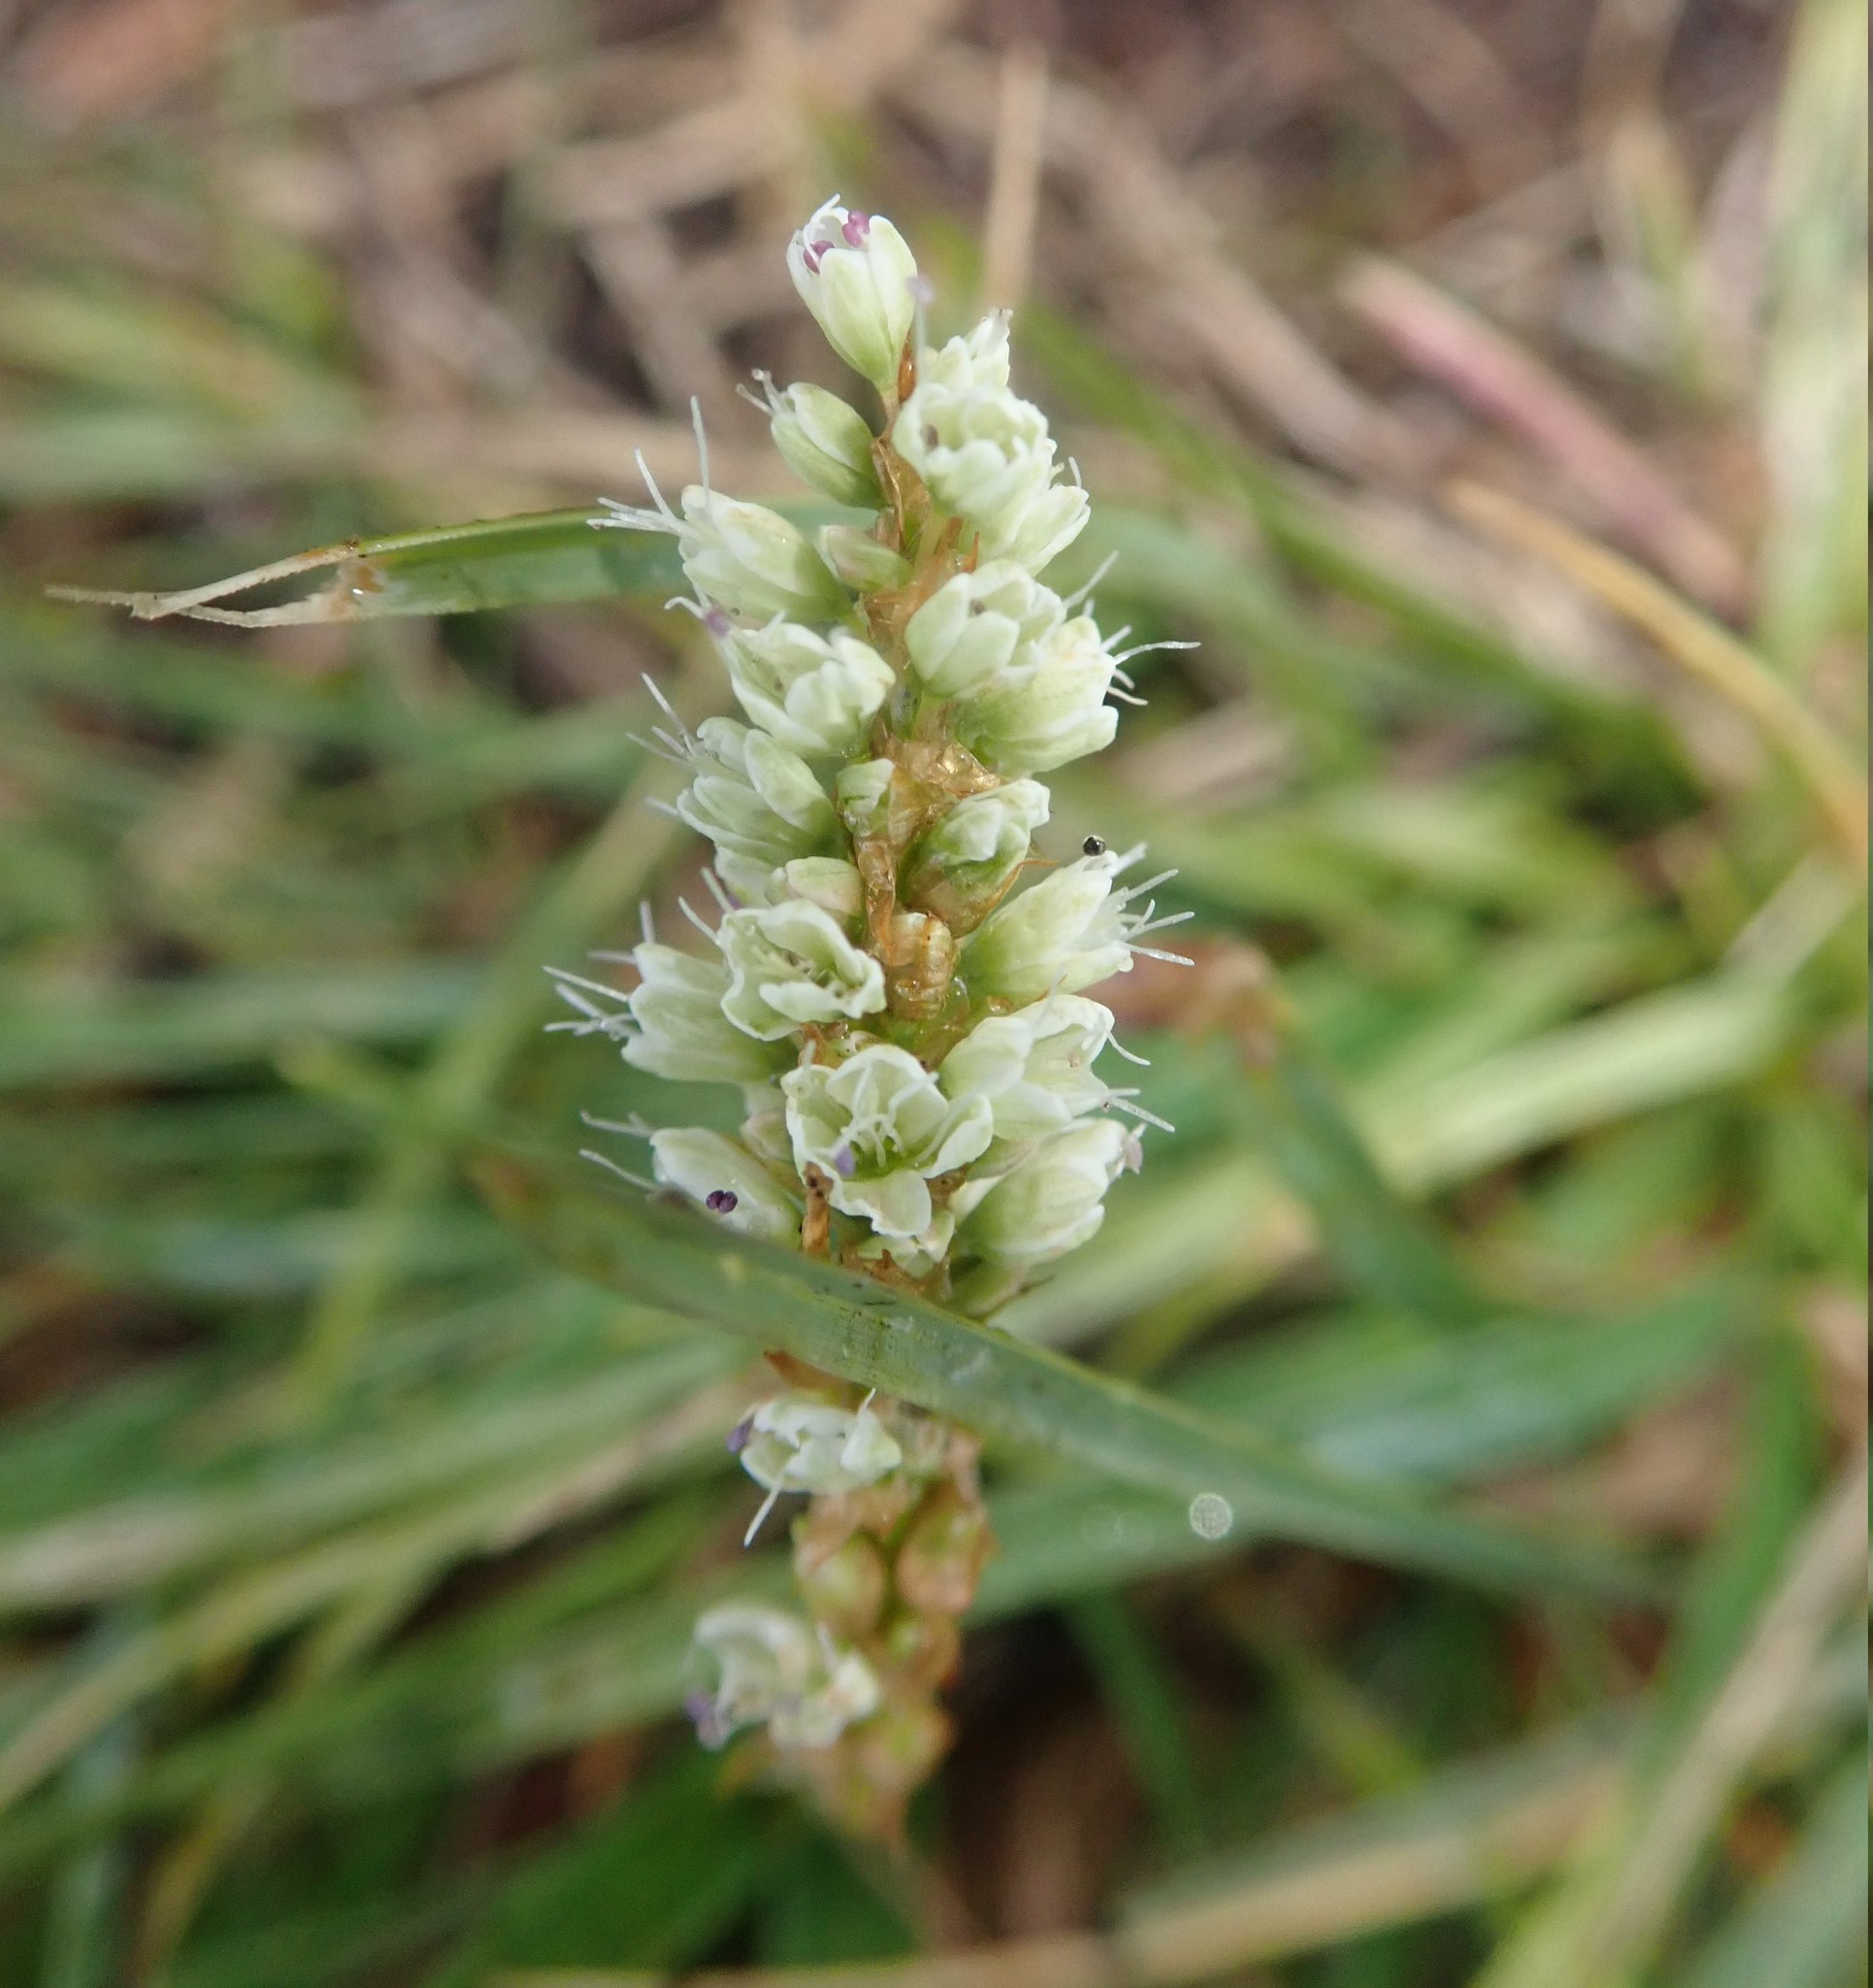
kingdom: Plantae
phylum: Tracheophyta
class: Magnoliopsida
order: Caryophyllales
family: Polygonaceae
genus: Bistorta
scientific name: Bistorta vivipara
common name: Alpine bistort
